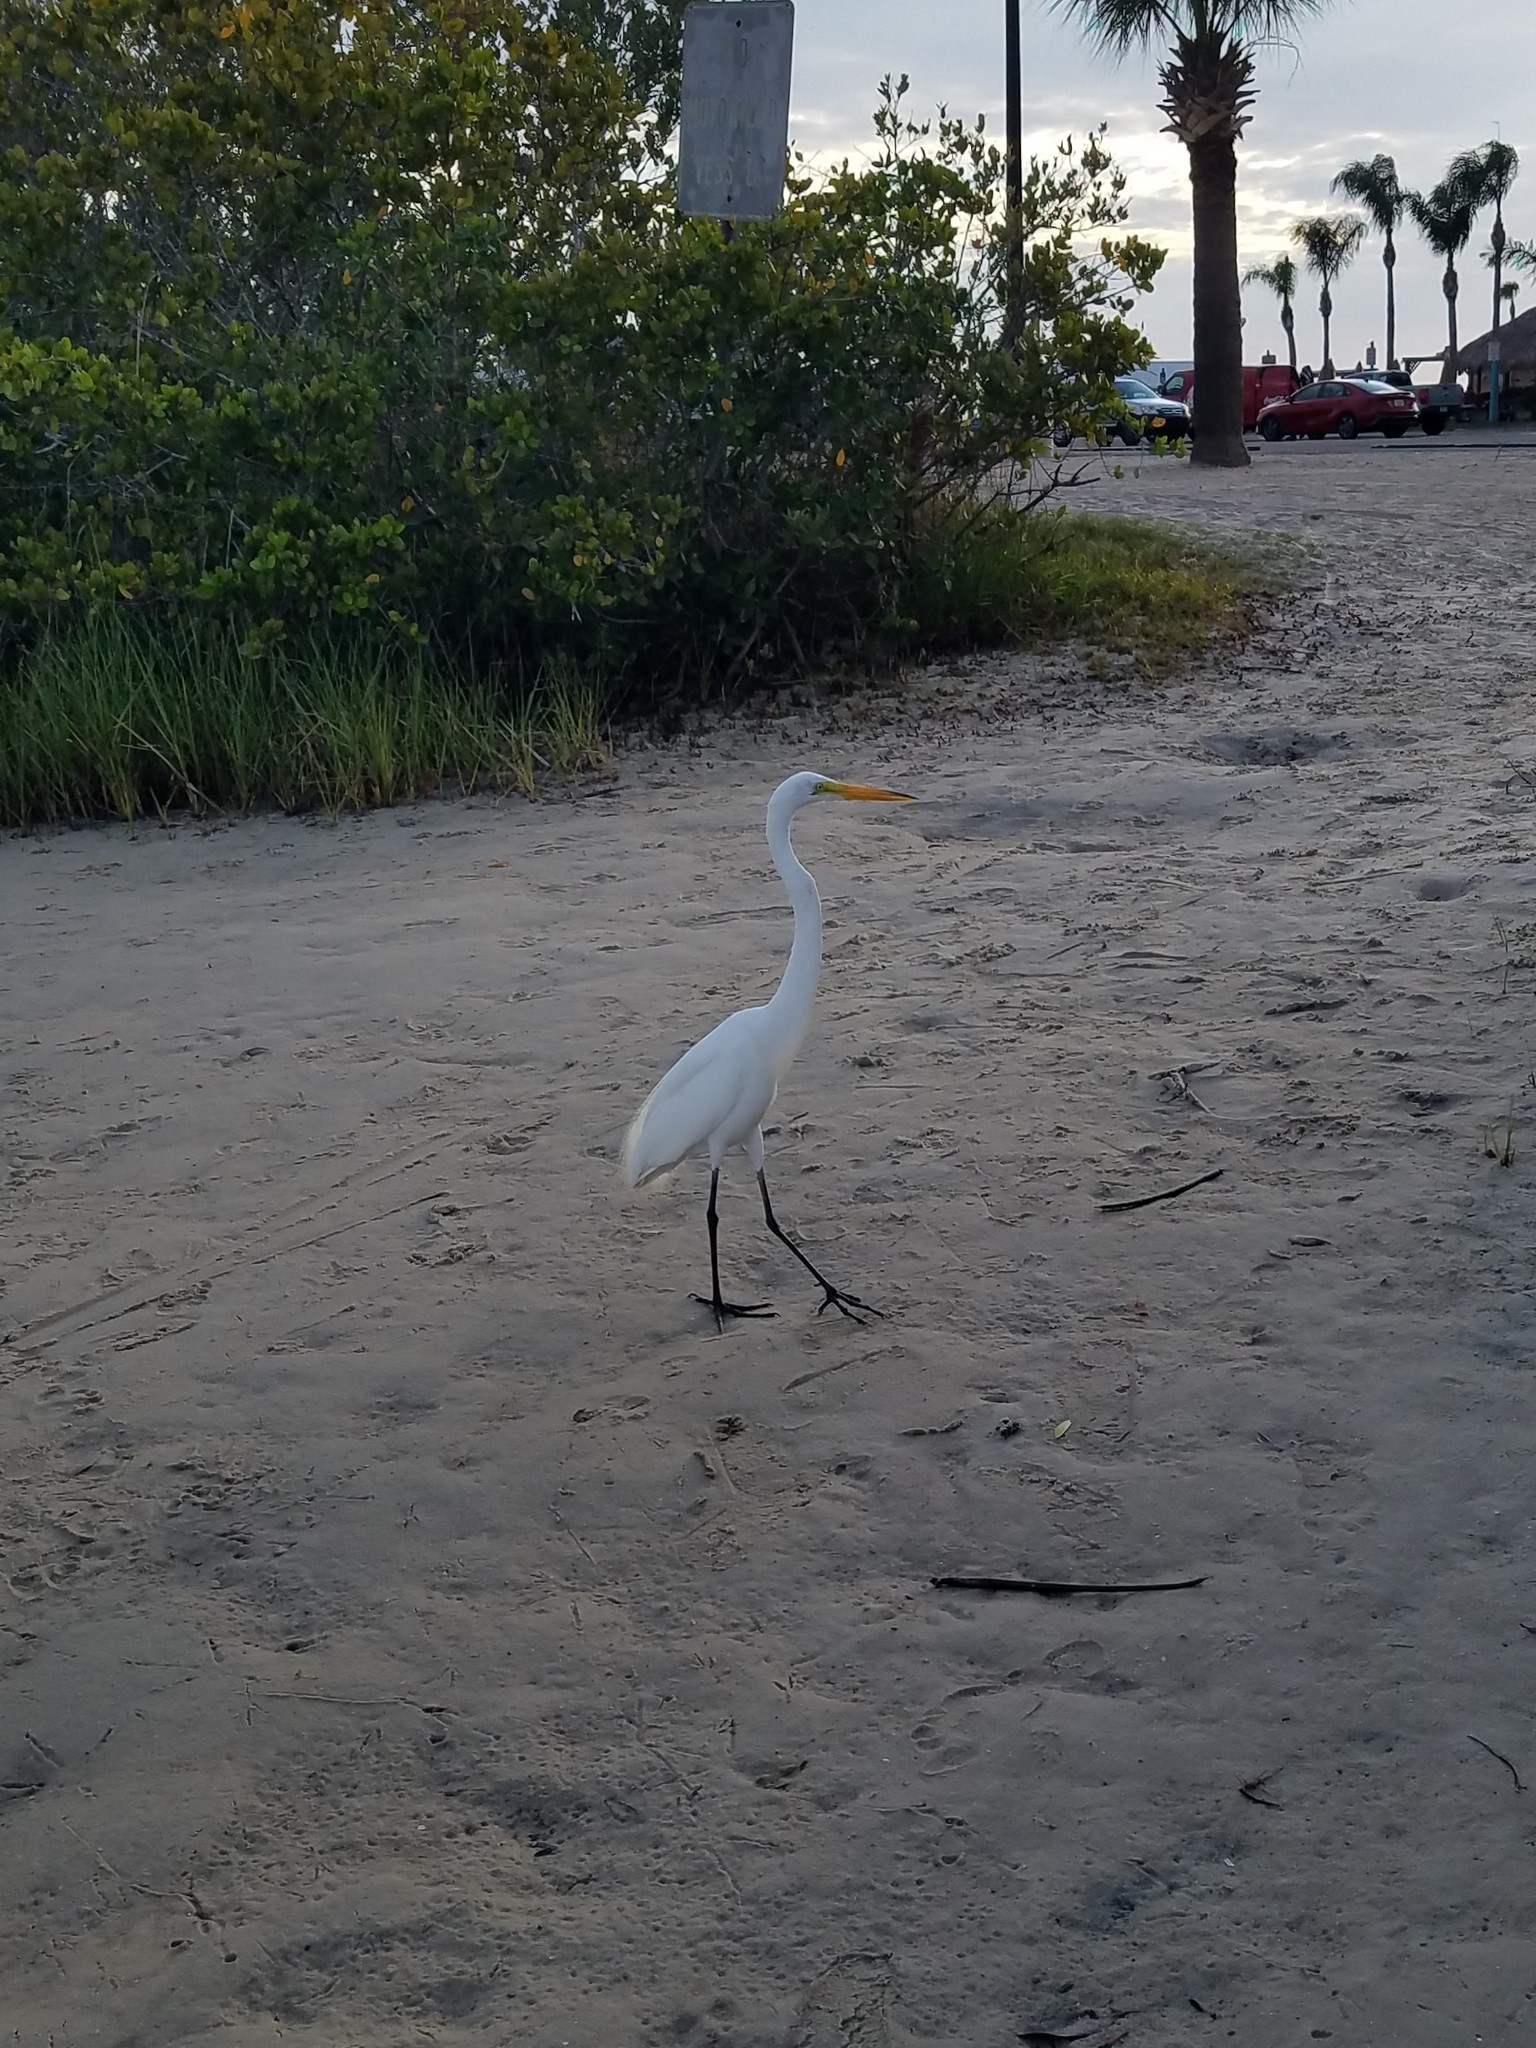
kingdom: Animalia
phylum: Chordata
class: Aves
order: Pelecaniformes
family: Ardeidae
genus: Ardea
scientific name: Ardea alba
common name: Great egret
